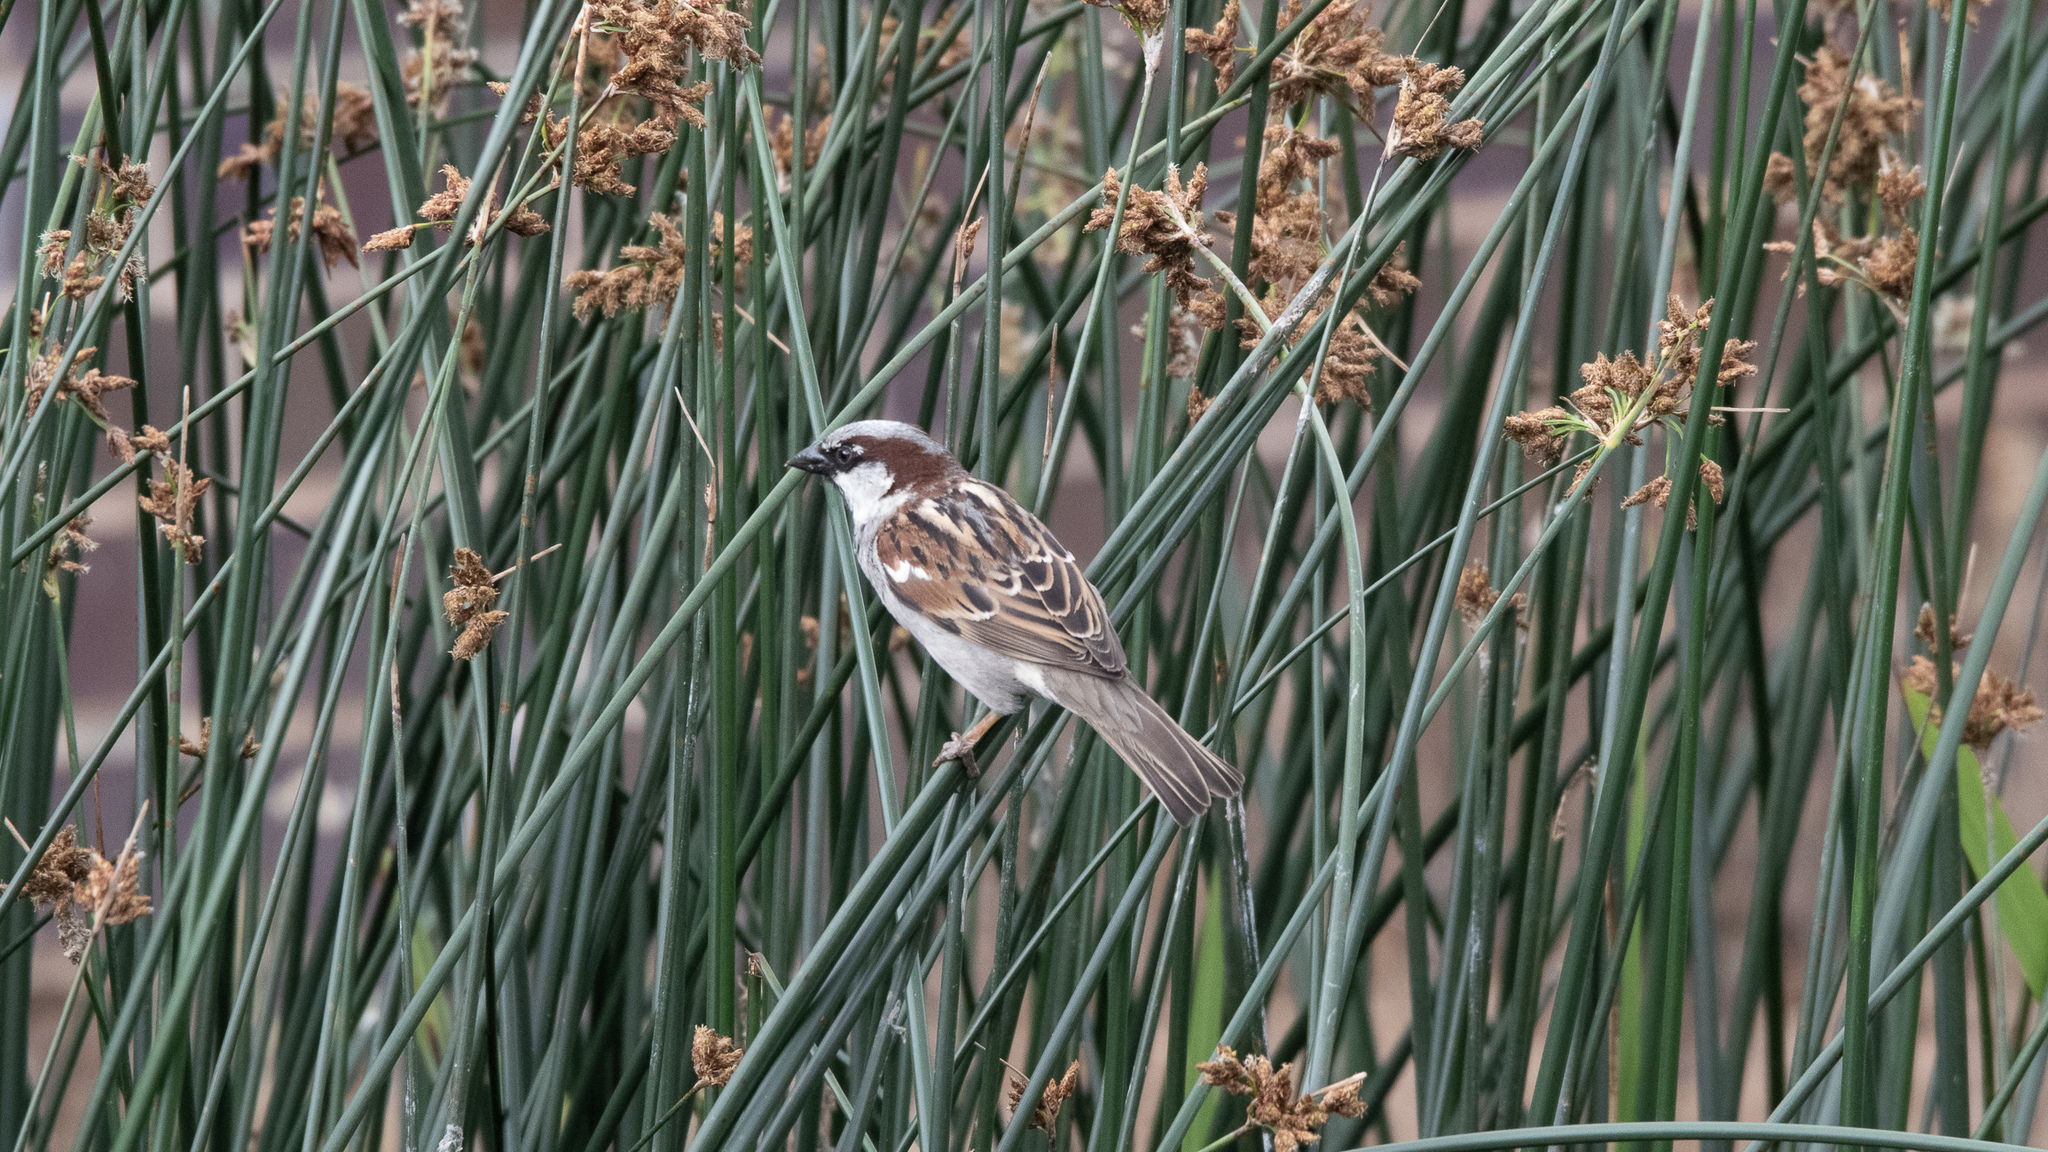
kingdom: Animalia
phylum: Chordata
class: Aves
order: Passeriformes
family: Passeridae
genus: Passer
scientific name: Passer domesticus
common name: House sparrow
